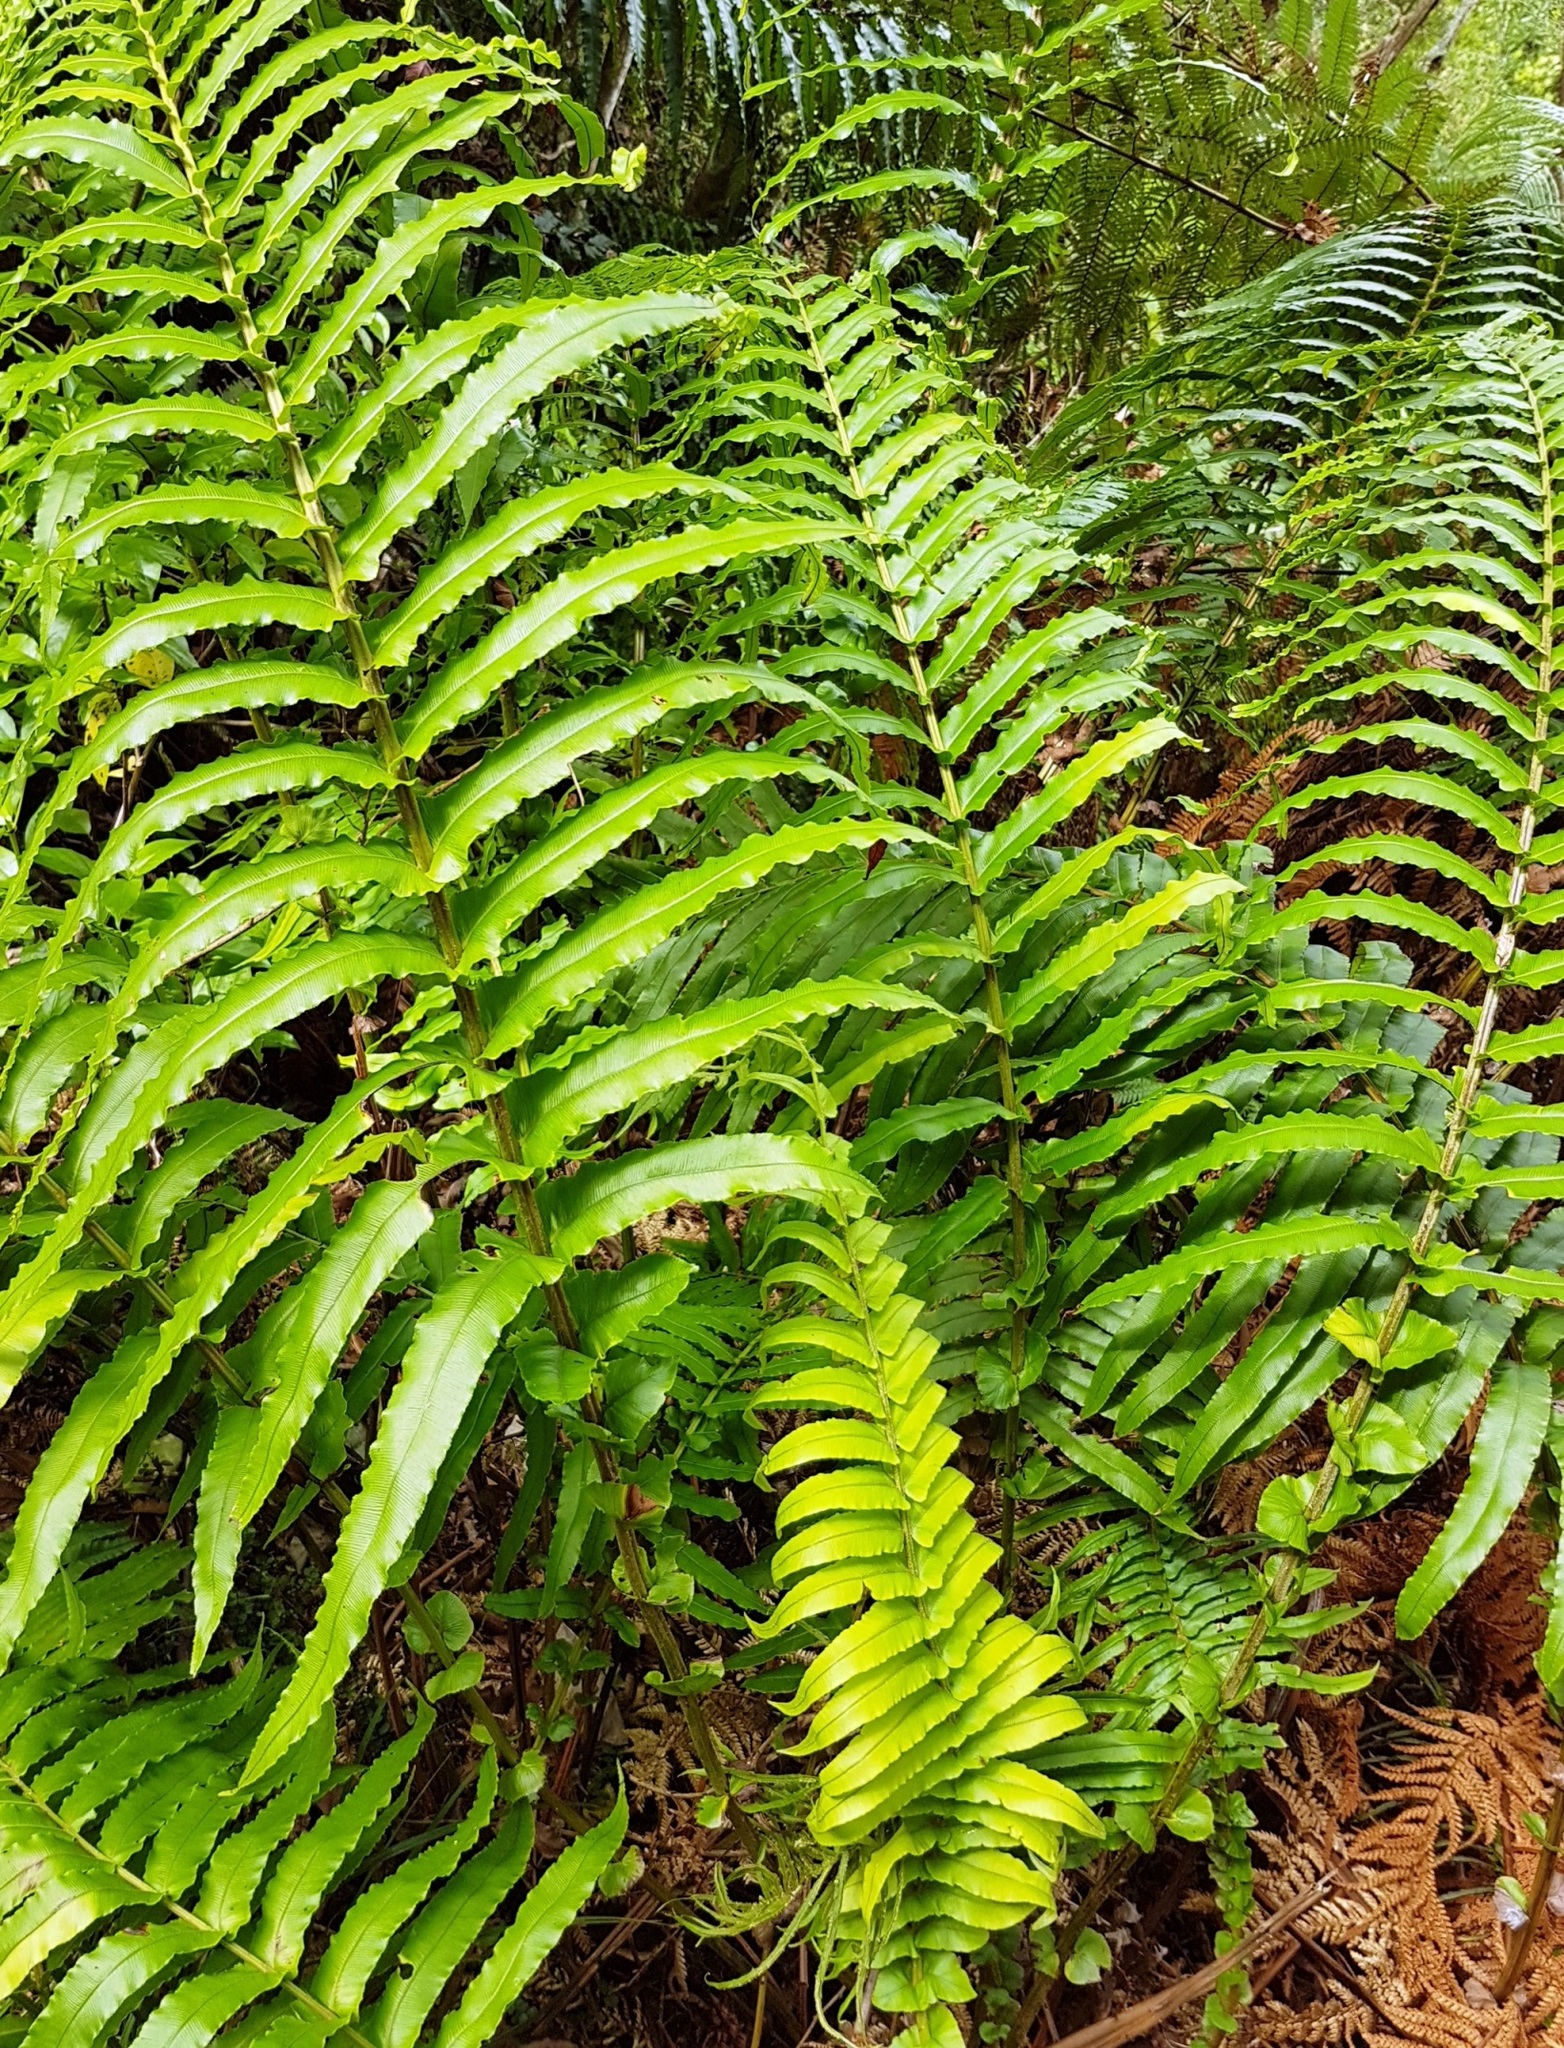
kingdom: Plantae
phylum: Tracheophyta
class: Polypodiopsida
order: Polypodiales
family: Blechnaceae
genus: Parablechnum
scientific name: Parablechnum novae-zelandiae
